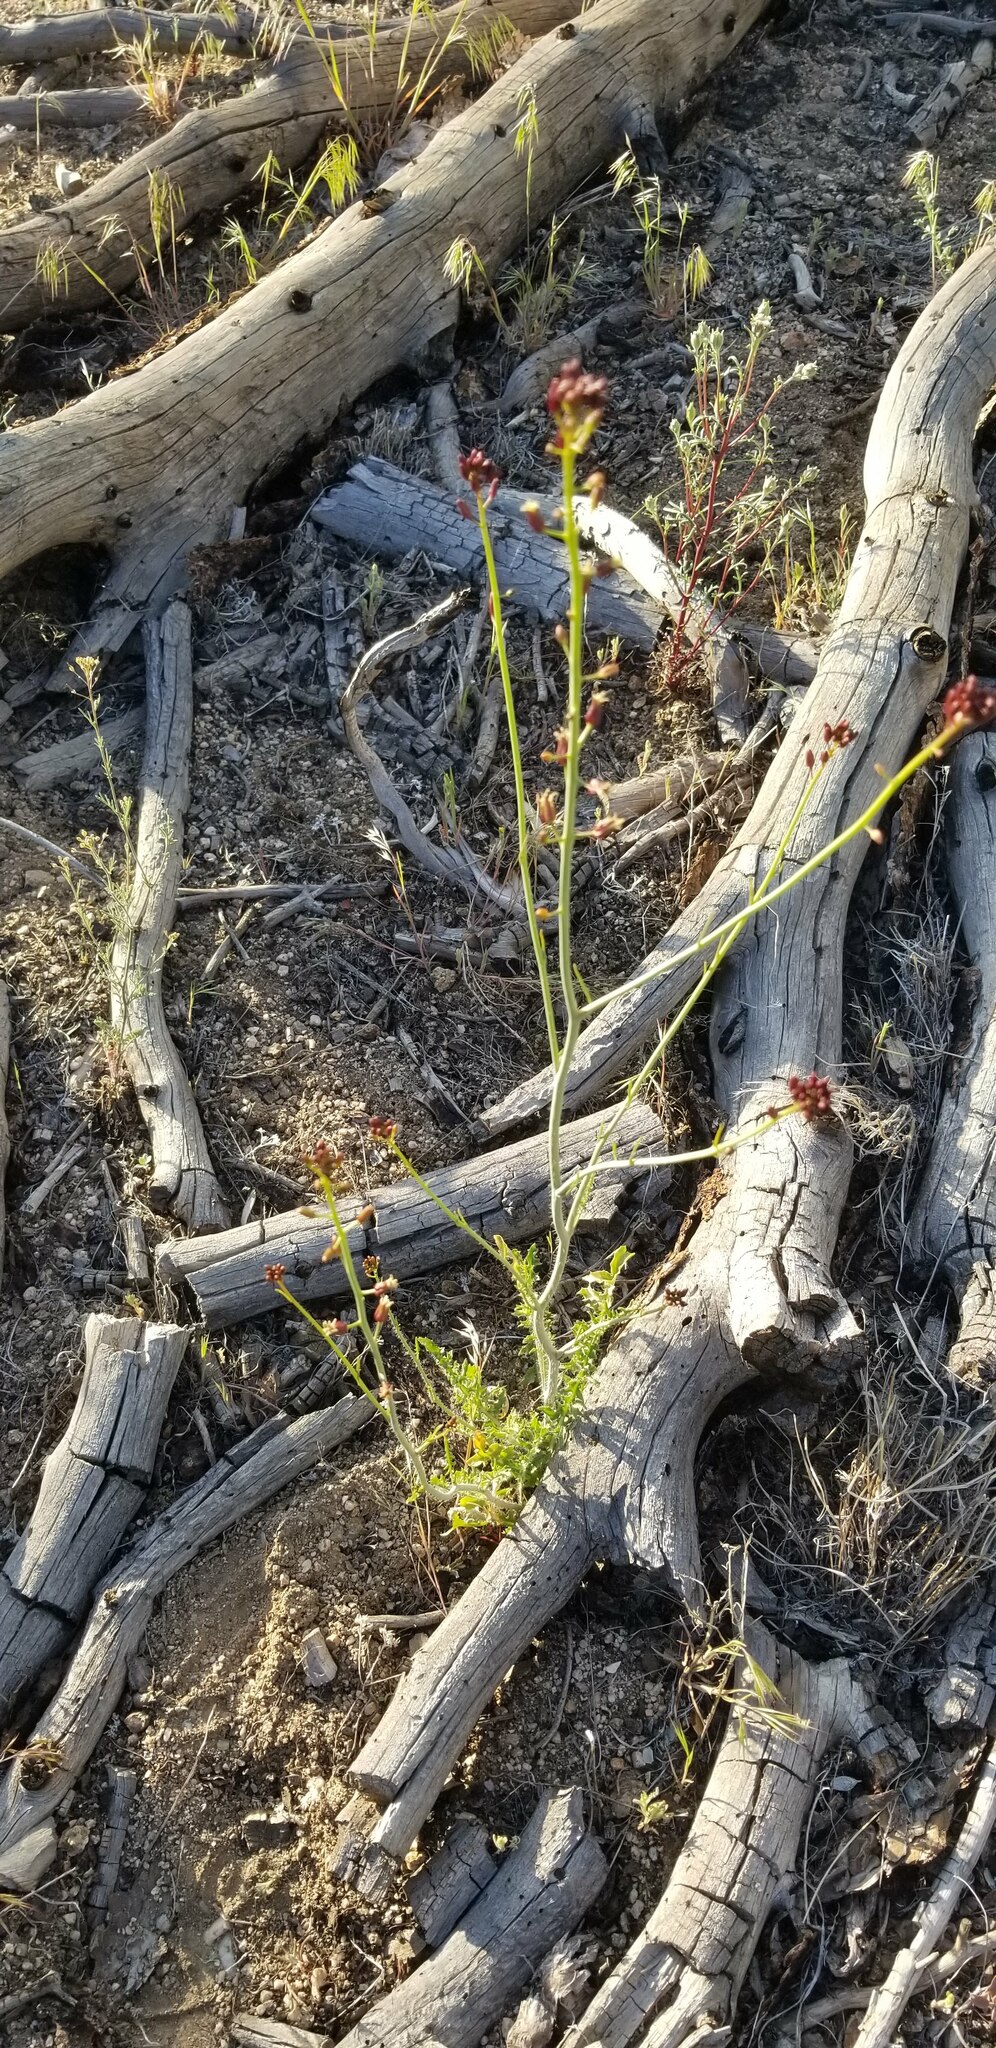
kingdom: Plantae
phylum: Tracheophyta
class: Magnoliopsida
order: Brassicales
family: Brassicaceae
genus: Streptanthus
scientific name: Streptanthus pilosus
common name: Chocolate drops
